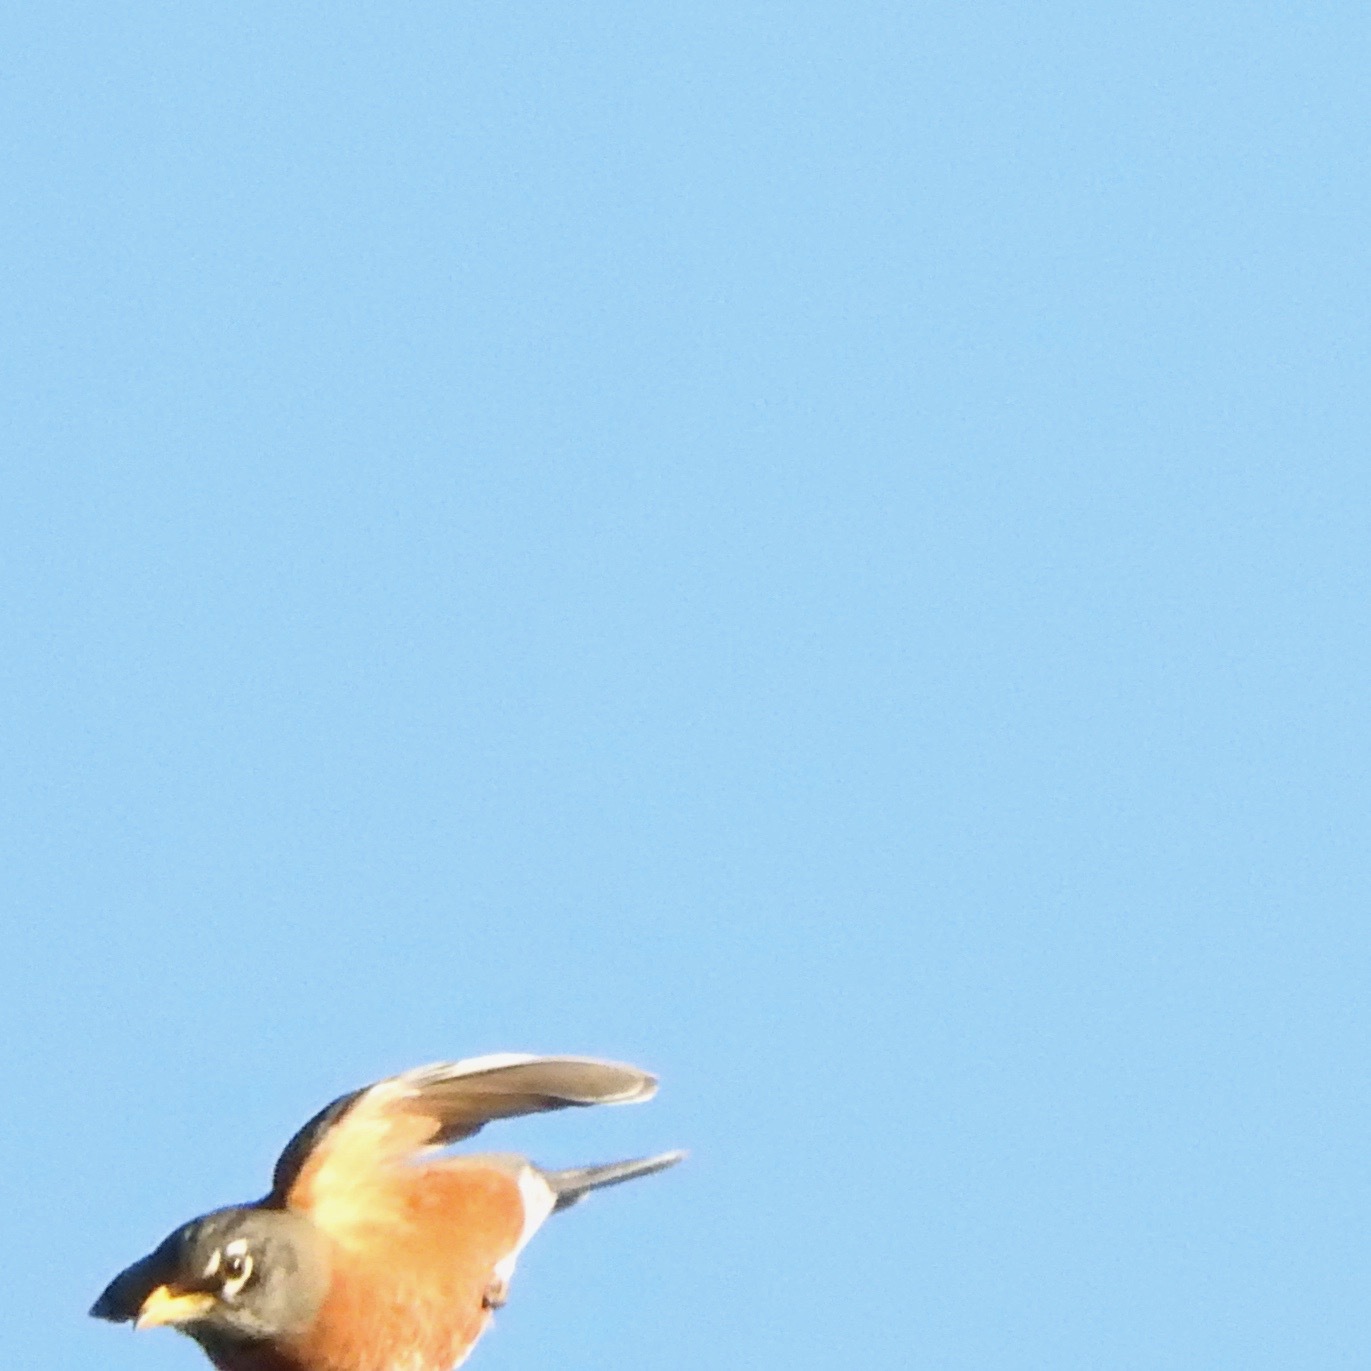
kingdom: Animalia
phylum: Chordata
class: Aves
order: Passeriformes
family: Turdidae
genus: Turdus
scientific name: Turdus migratorius
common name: American robin
